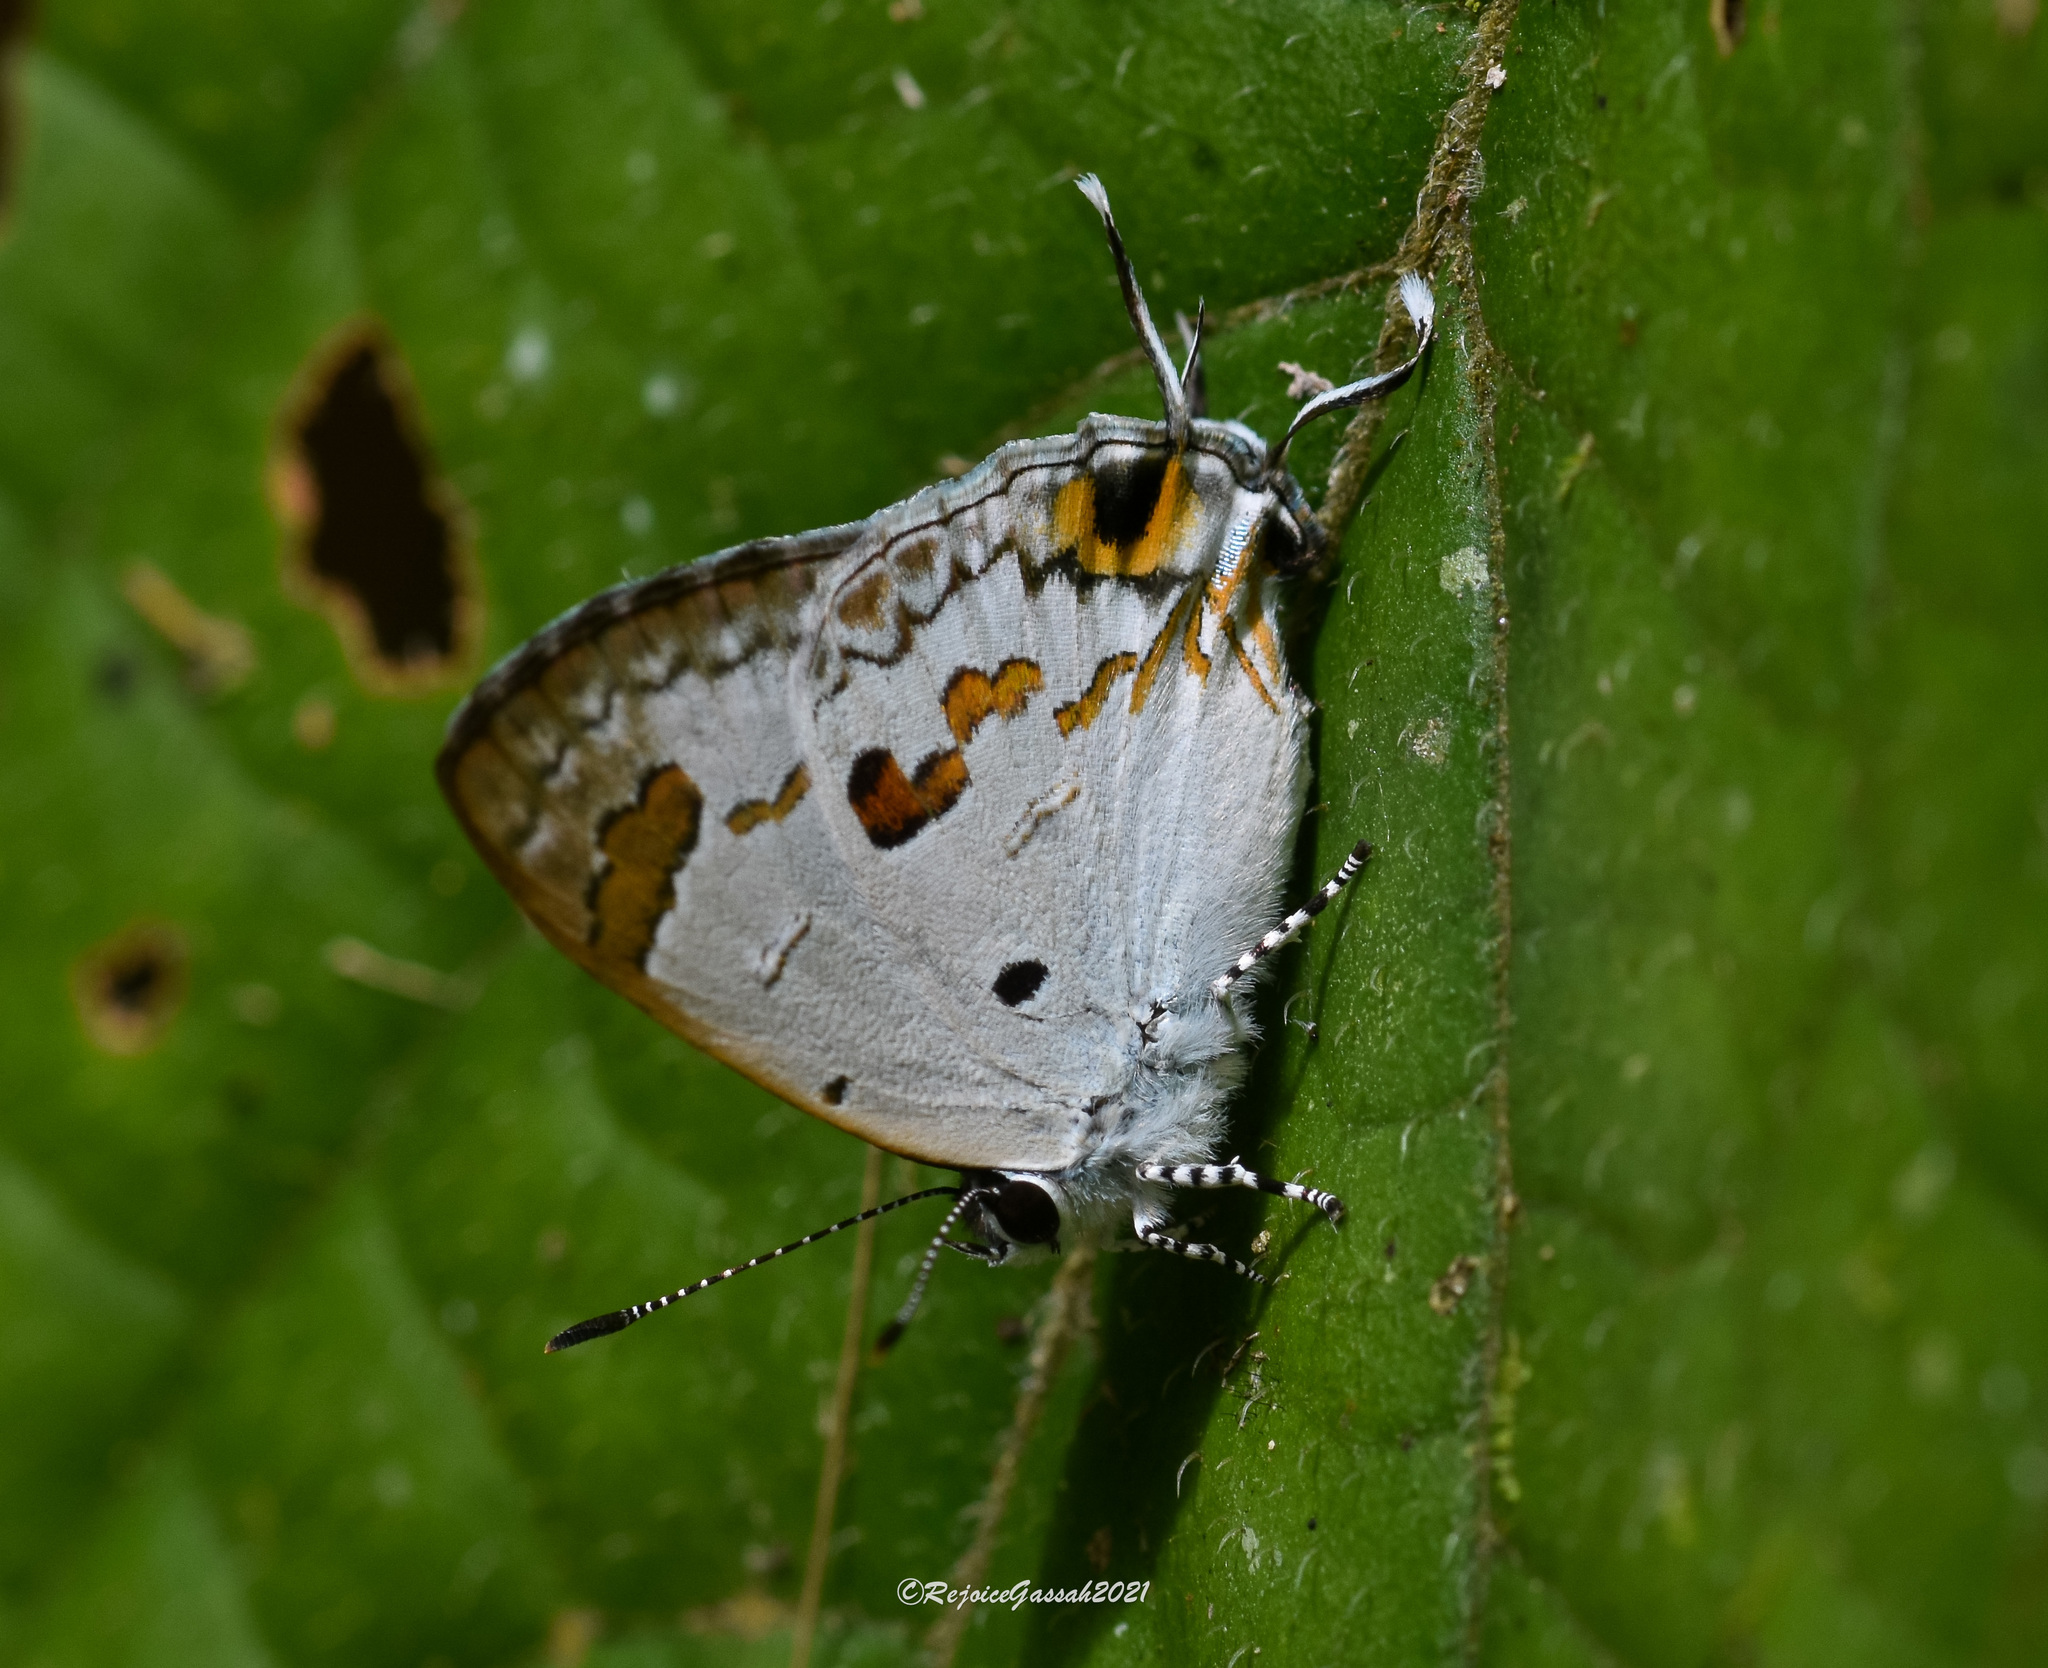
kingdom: Animalia
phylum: Arthropoda
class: Insecta
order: Lepidoptera
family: Lycaenidae
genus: Chliaria
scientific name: Chliaria othona
